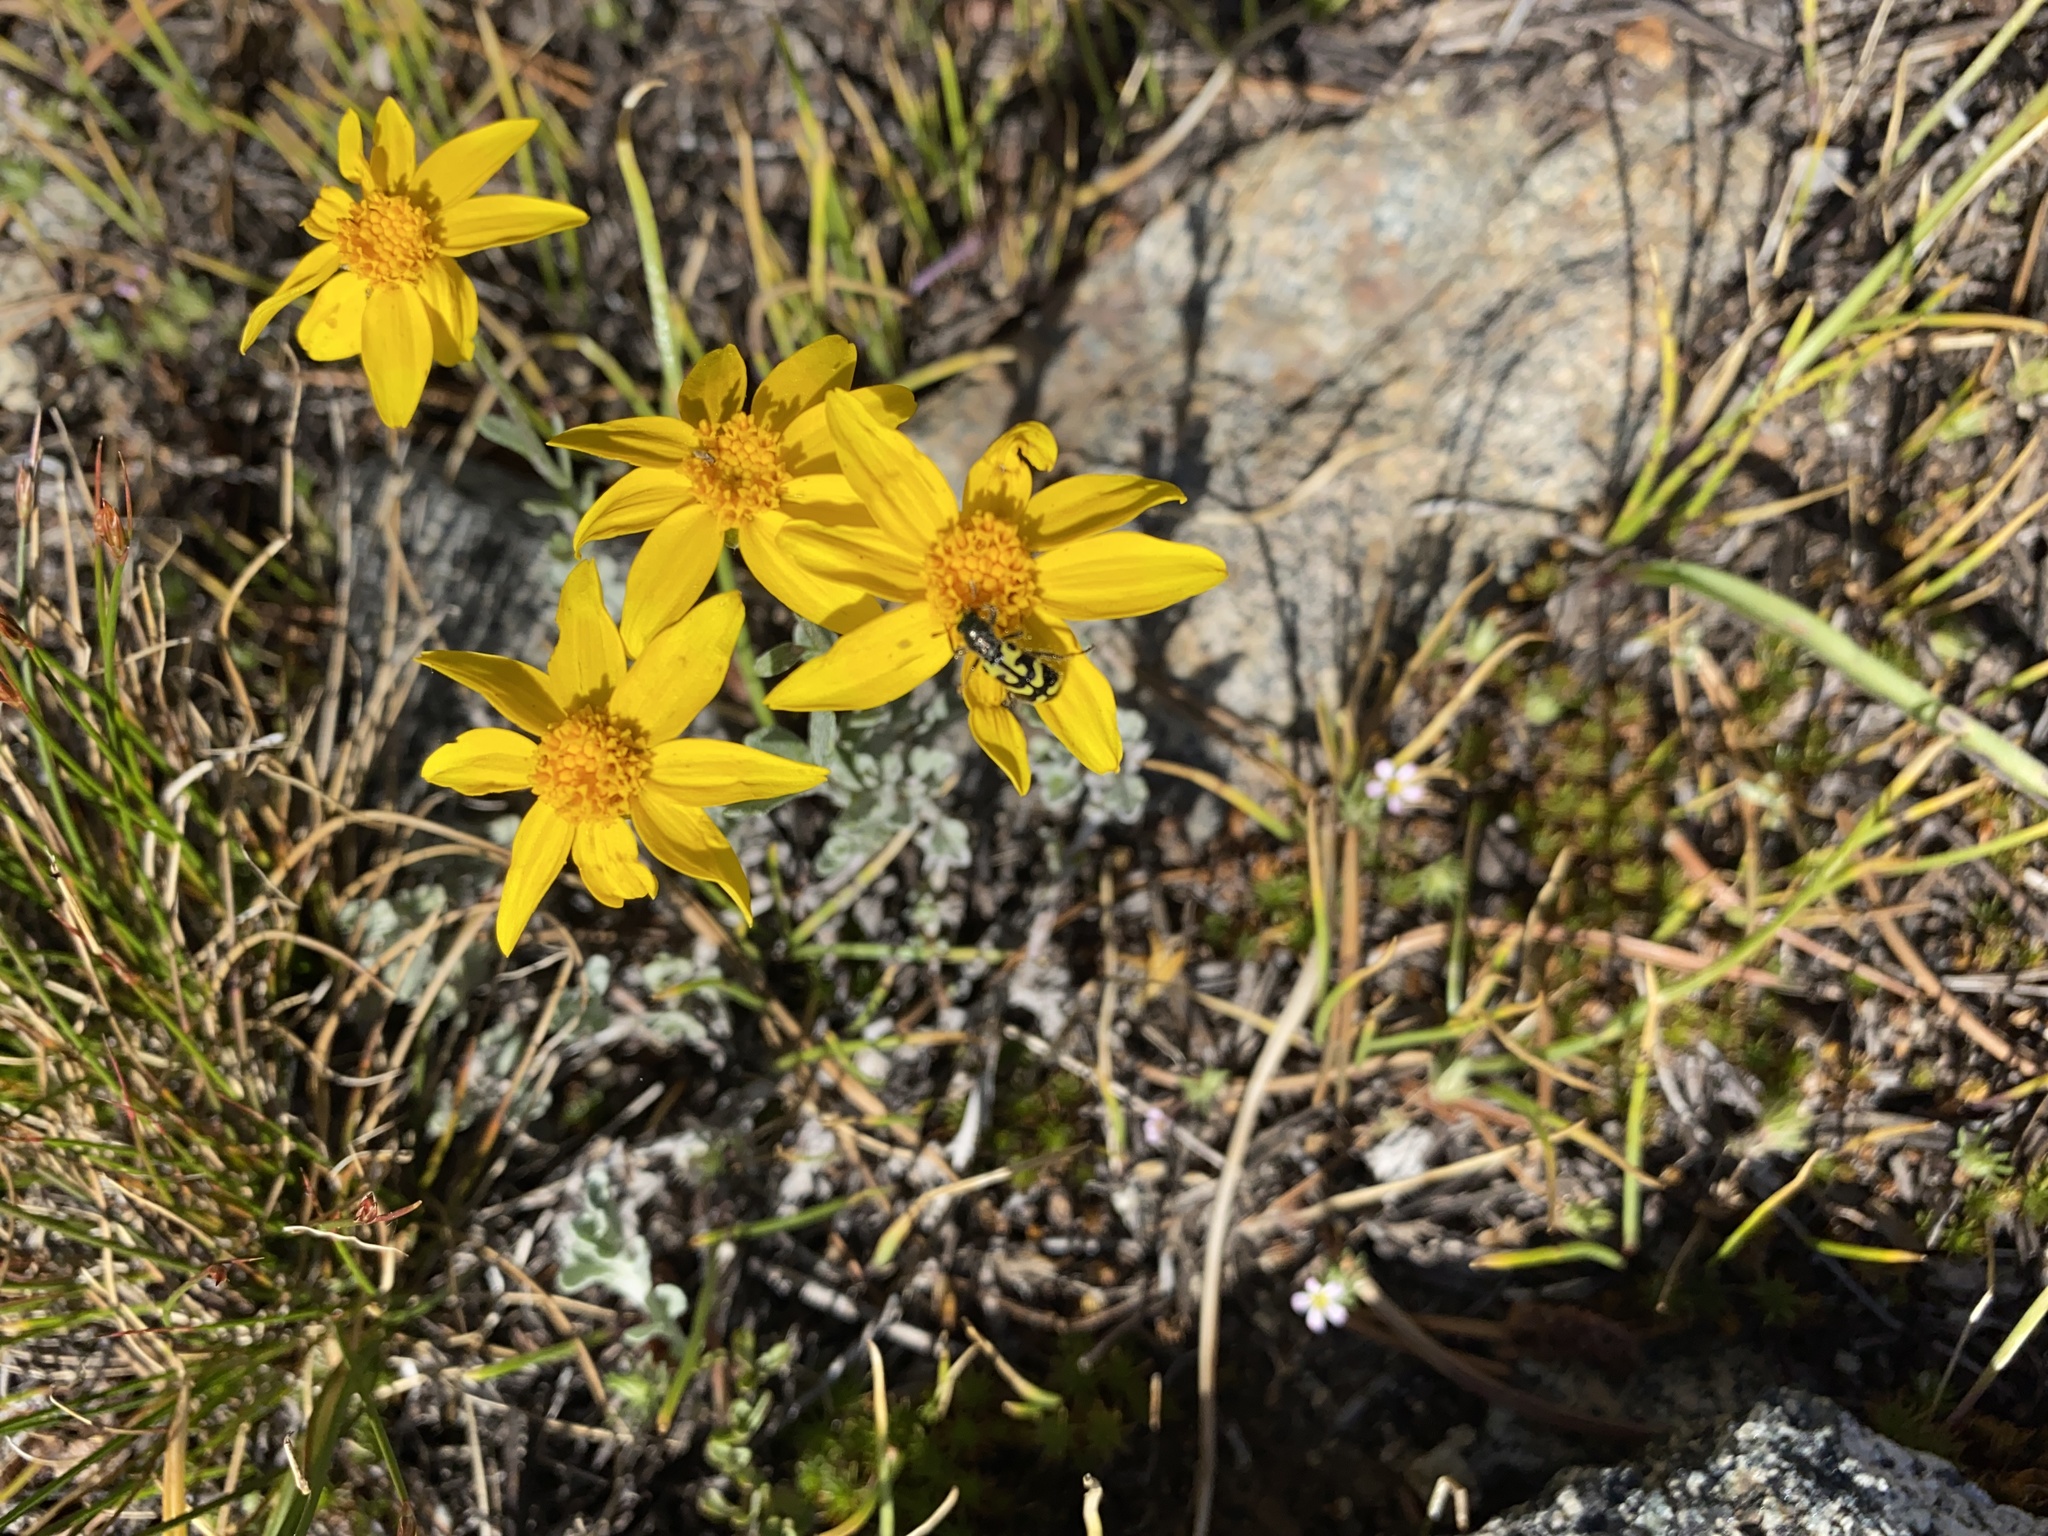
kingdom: Animalia
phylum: Arthropoda
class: Insecta
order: Coleoptera
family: Cleridae
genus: Trichodes
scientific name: Trichodes ornatus
